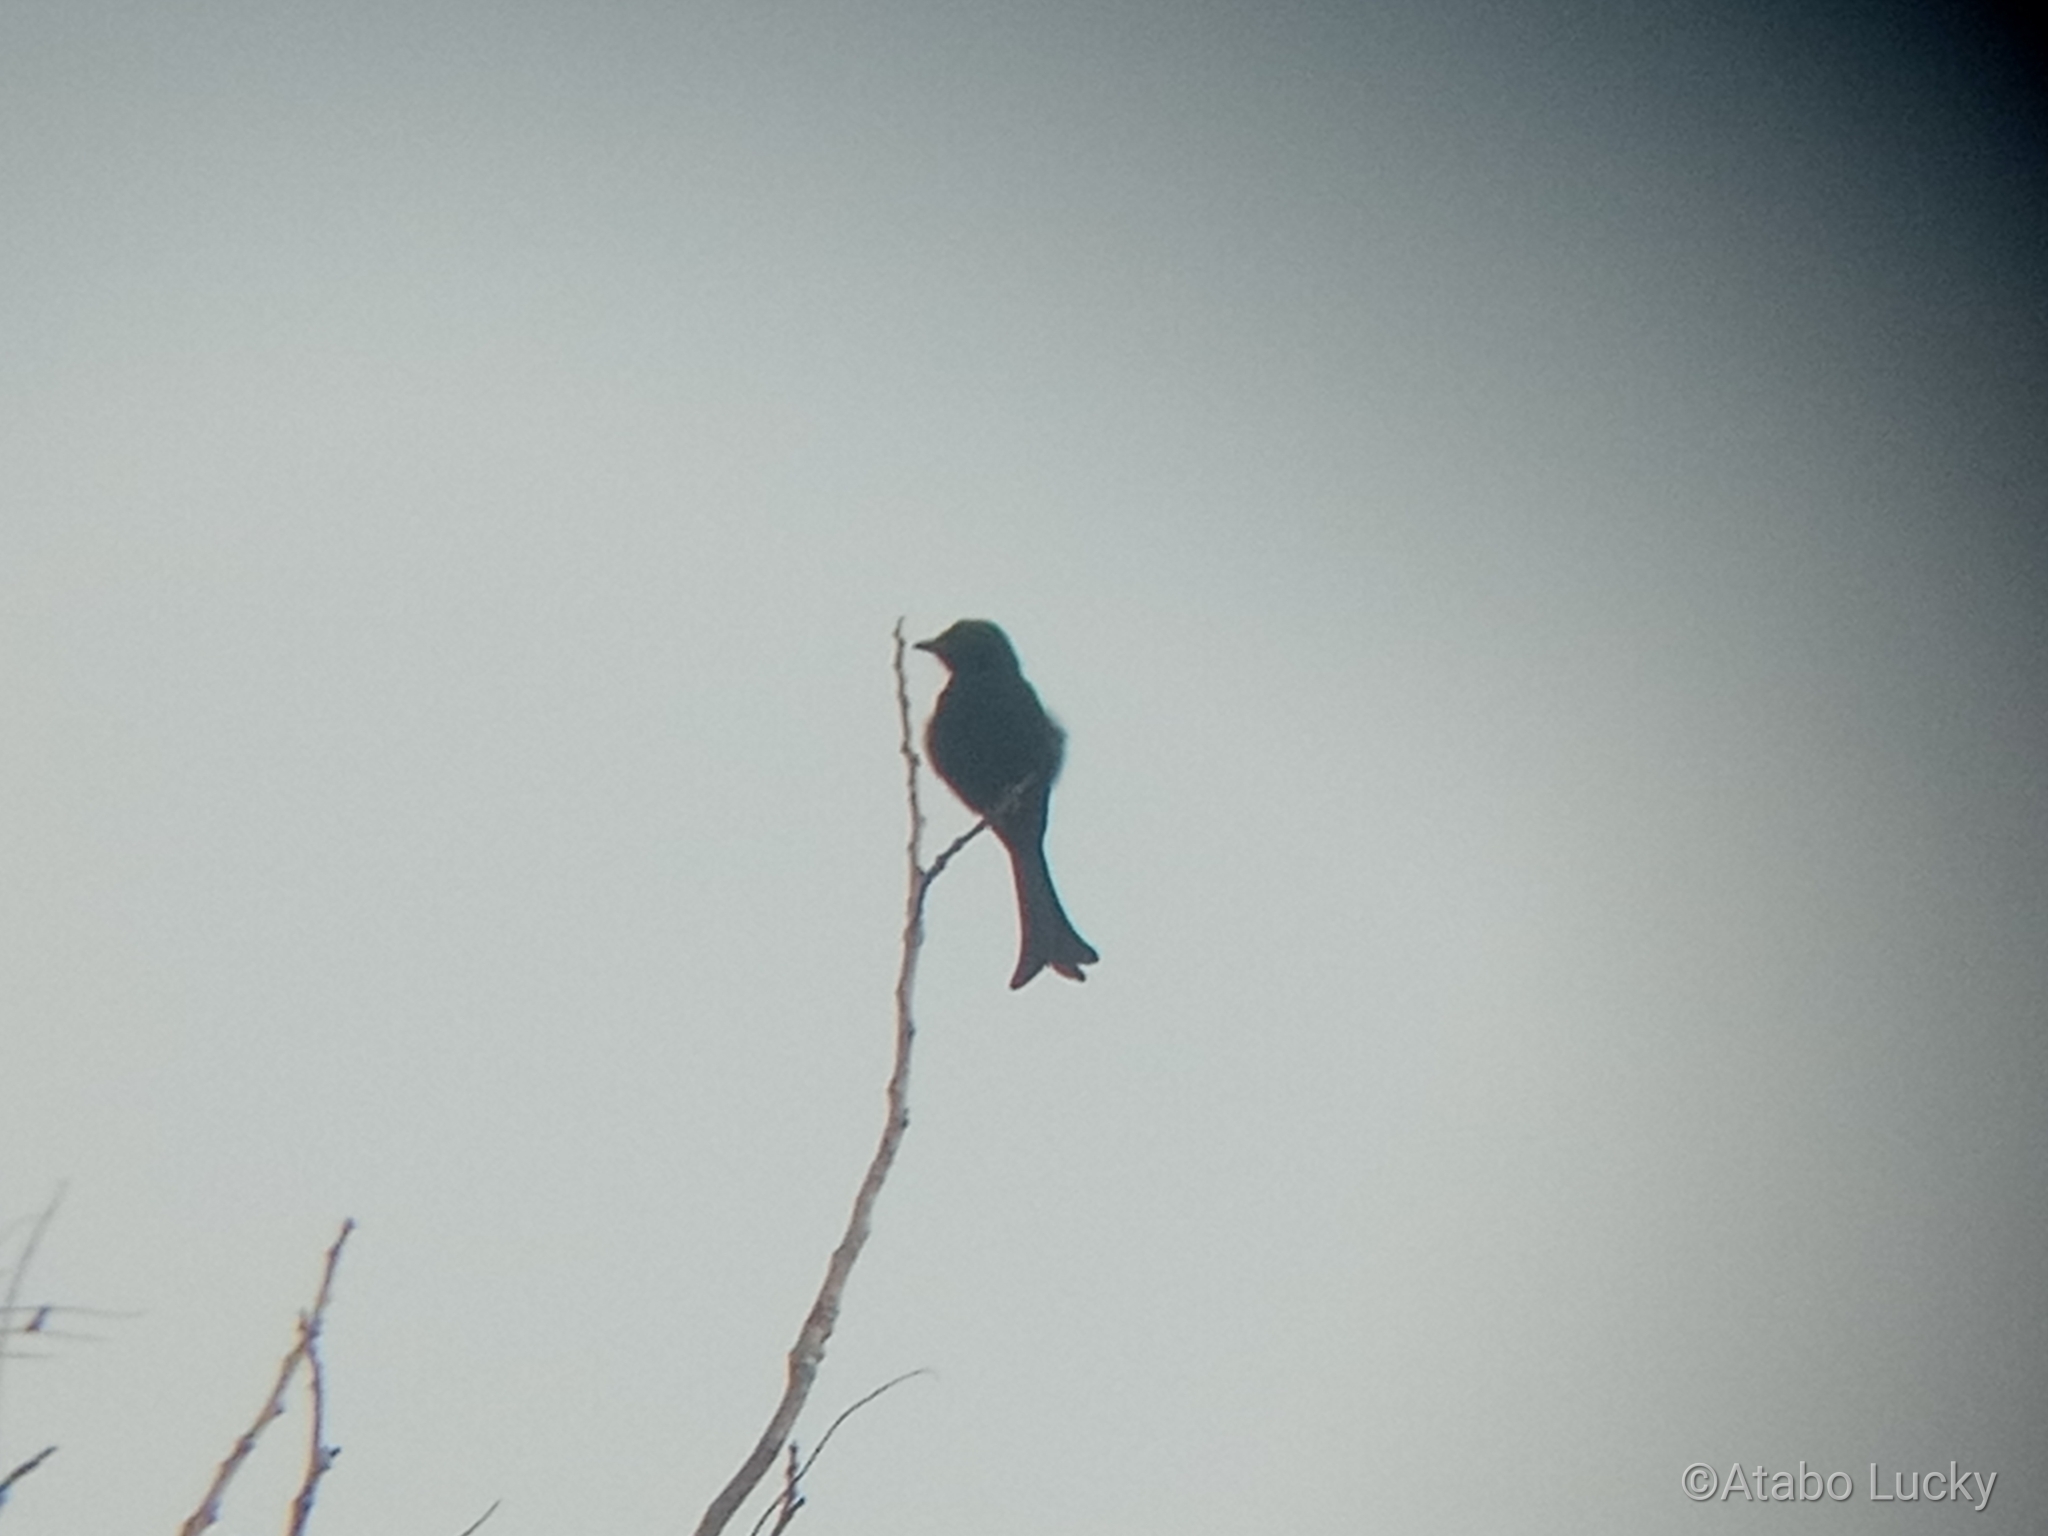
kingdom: Animalia
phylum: Chordata
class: Aves
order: Passeriformes
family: Dicruridae
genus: Dicrurus
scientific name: Dicrurus adsimilis
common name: Fork-tailed drongo
